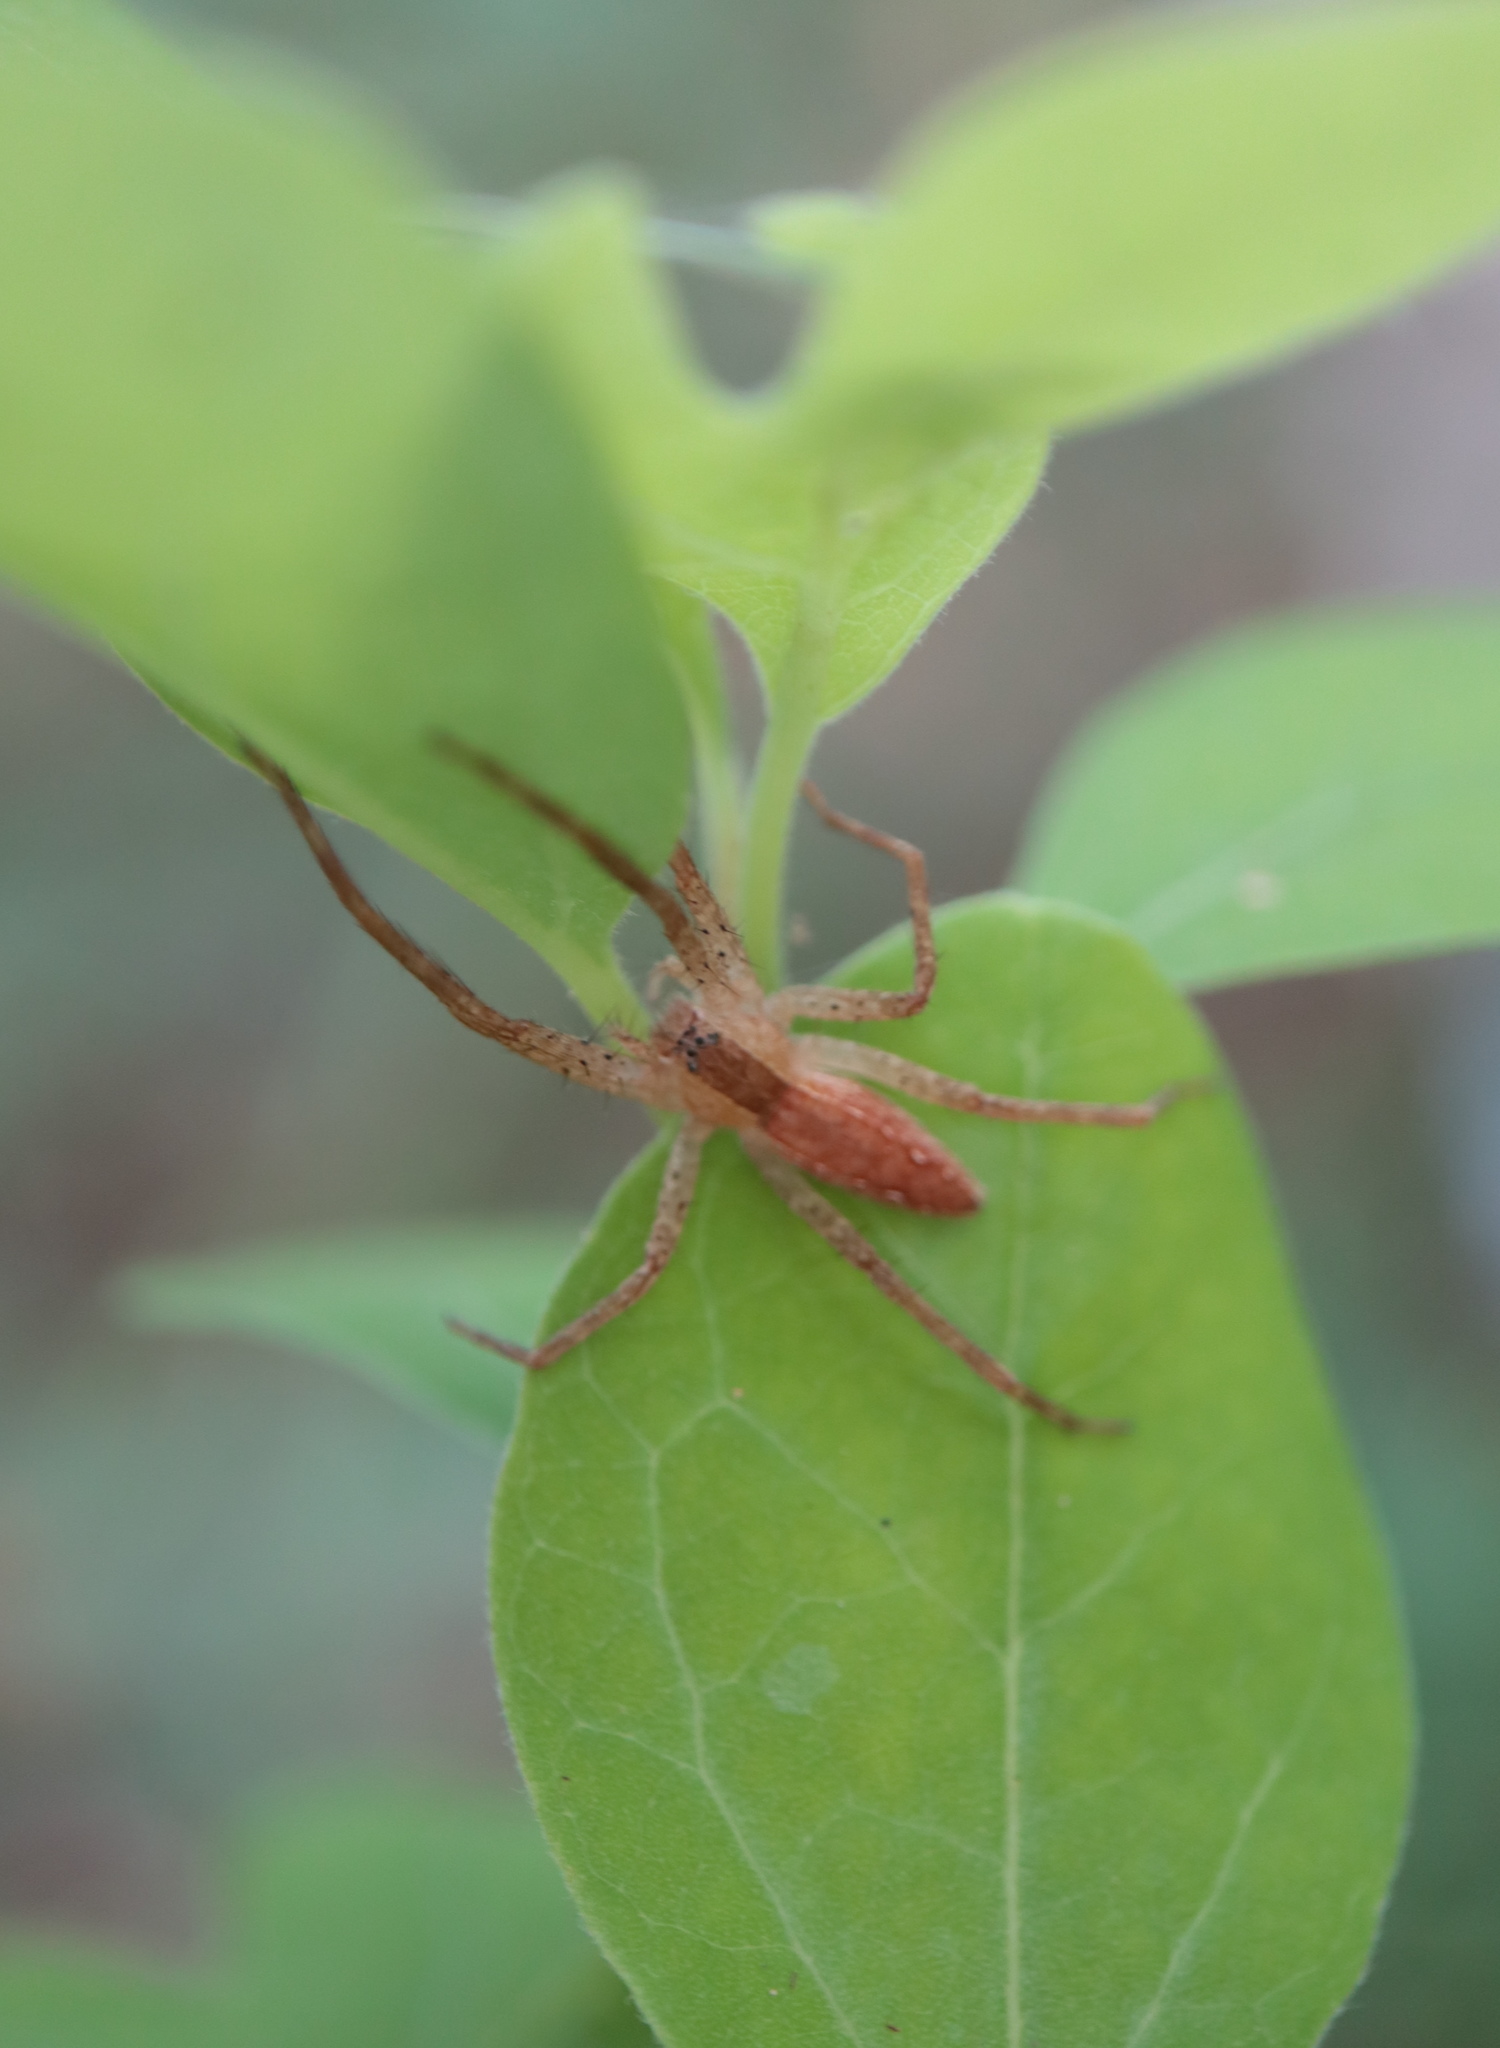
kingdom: Animalia
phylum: Arthropoda
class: Arachnida
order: Araneae
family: Pisauridae
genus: Pisaurina
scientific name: Pisaurina mira
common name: American nursery web spider
